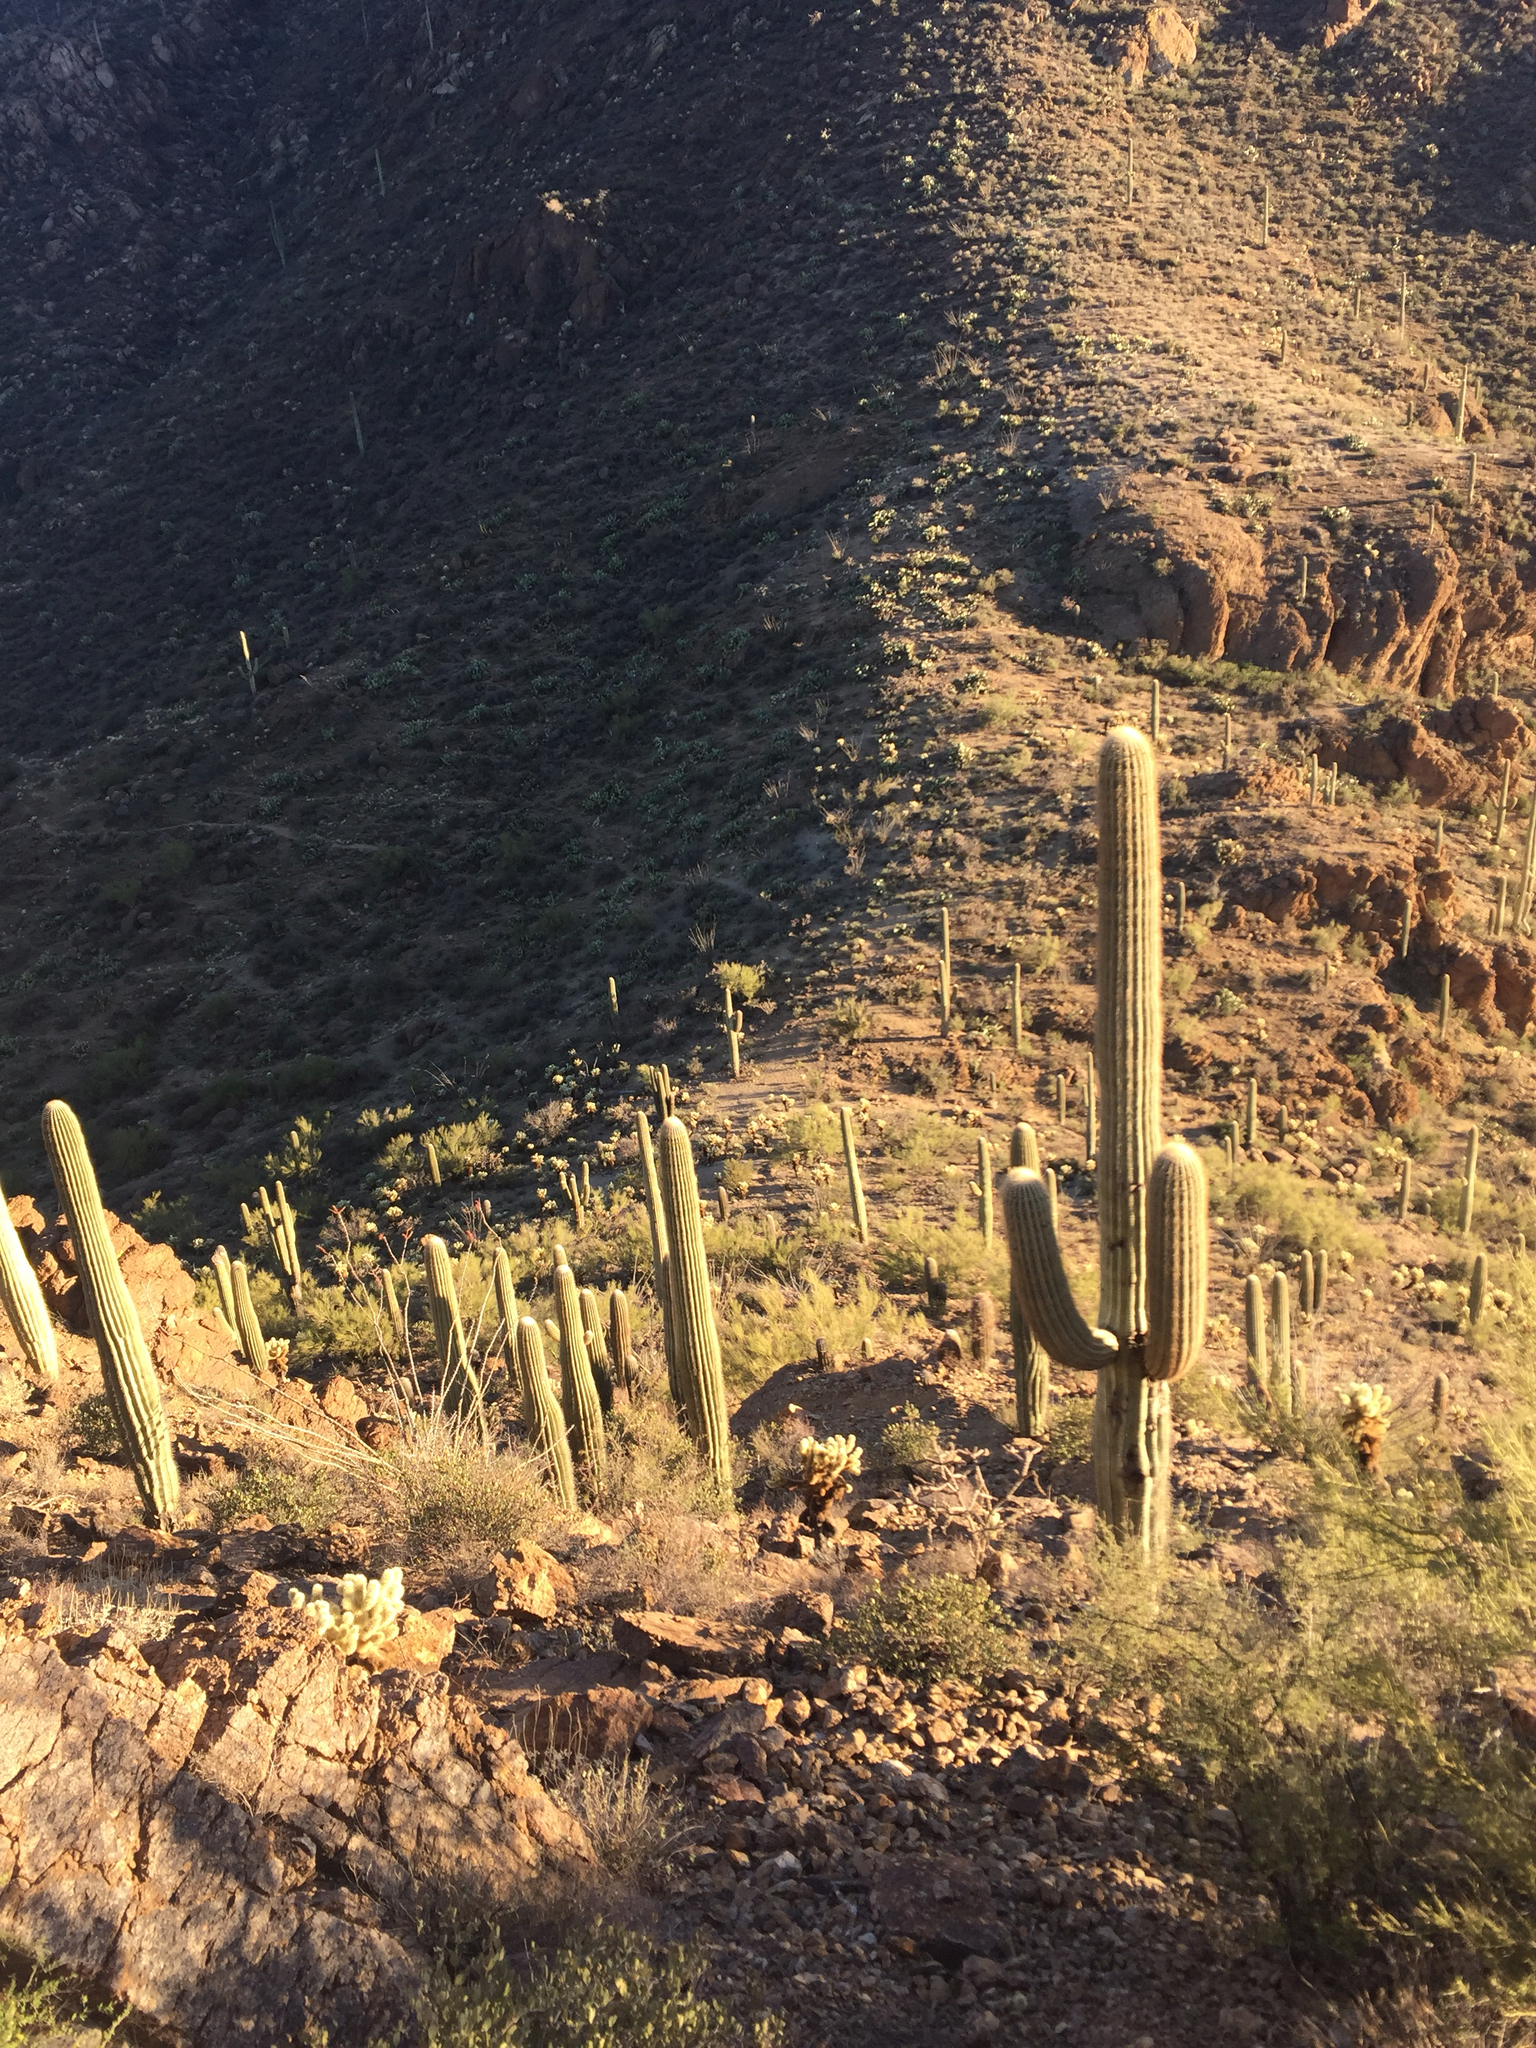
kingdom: Plantae
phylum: Tracheophyta
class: Magnoliopsida
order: Caryophyllales
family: Cactaceae
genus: Carnegiea
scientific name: Carnegiea gigantea
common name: Saguaro
